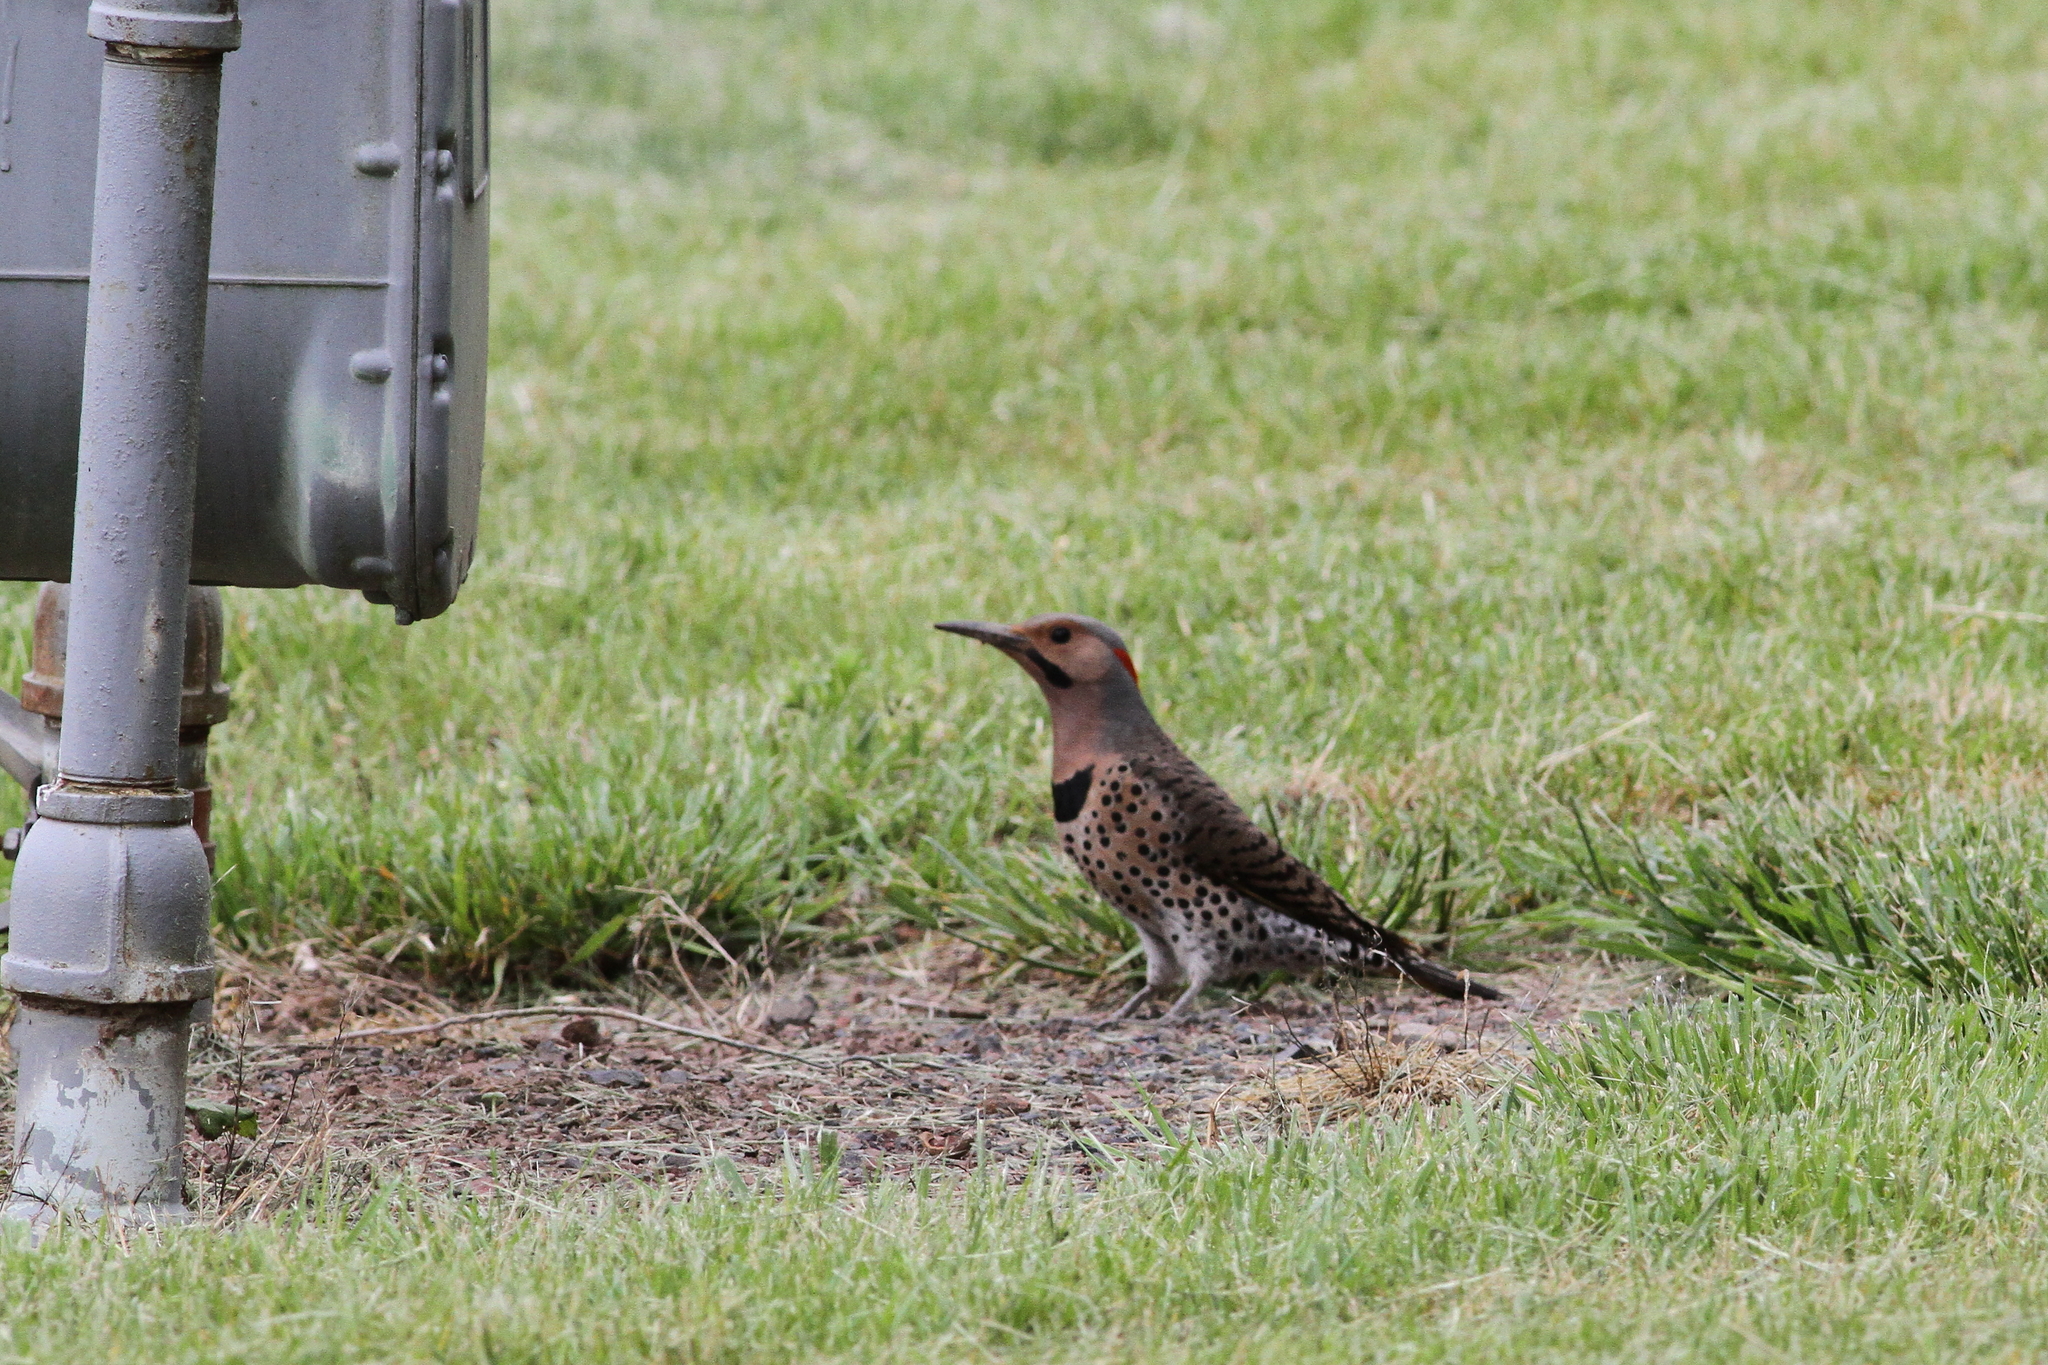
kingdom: Animalia
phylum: Chordata
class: Aves
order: Piciformes
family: Picidae
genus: Colaptes
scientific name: Colaptes auratus
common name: Northern flicker
